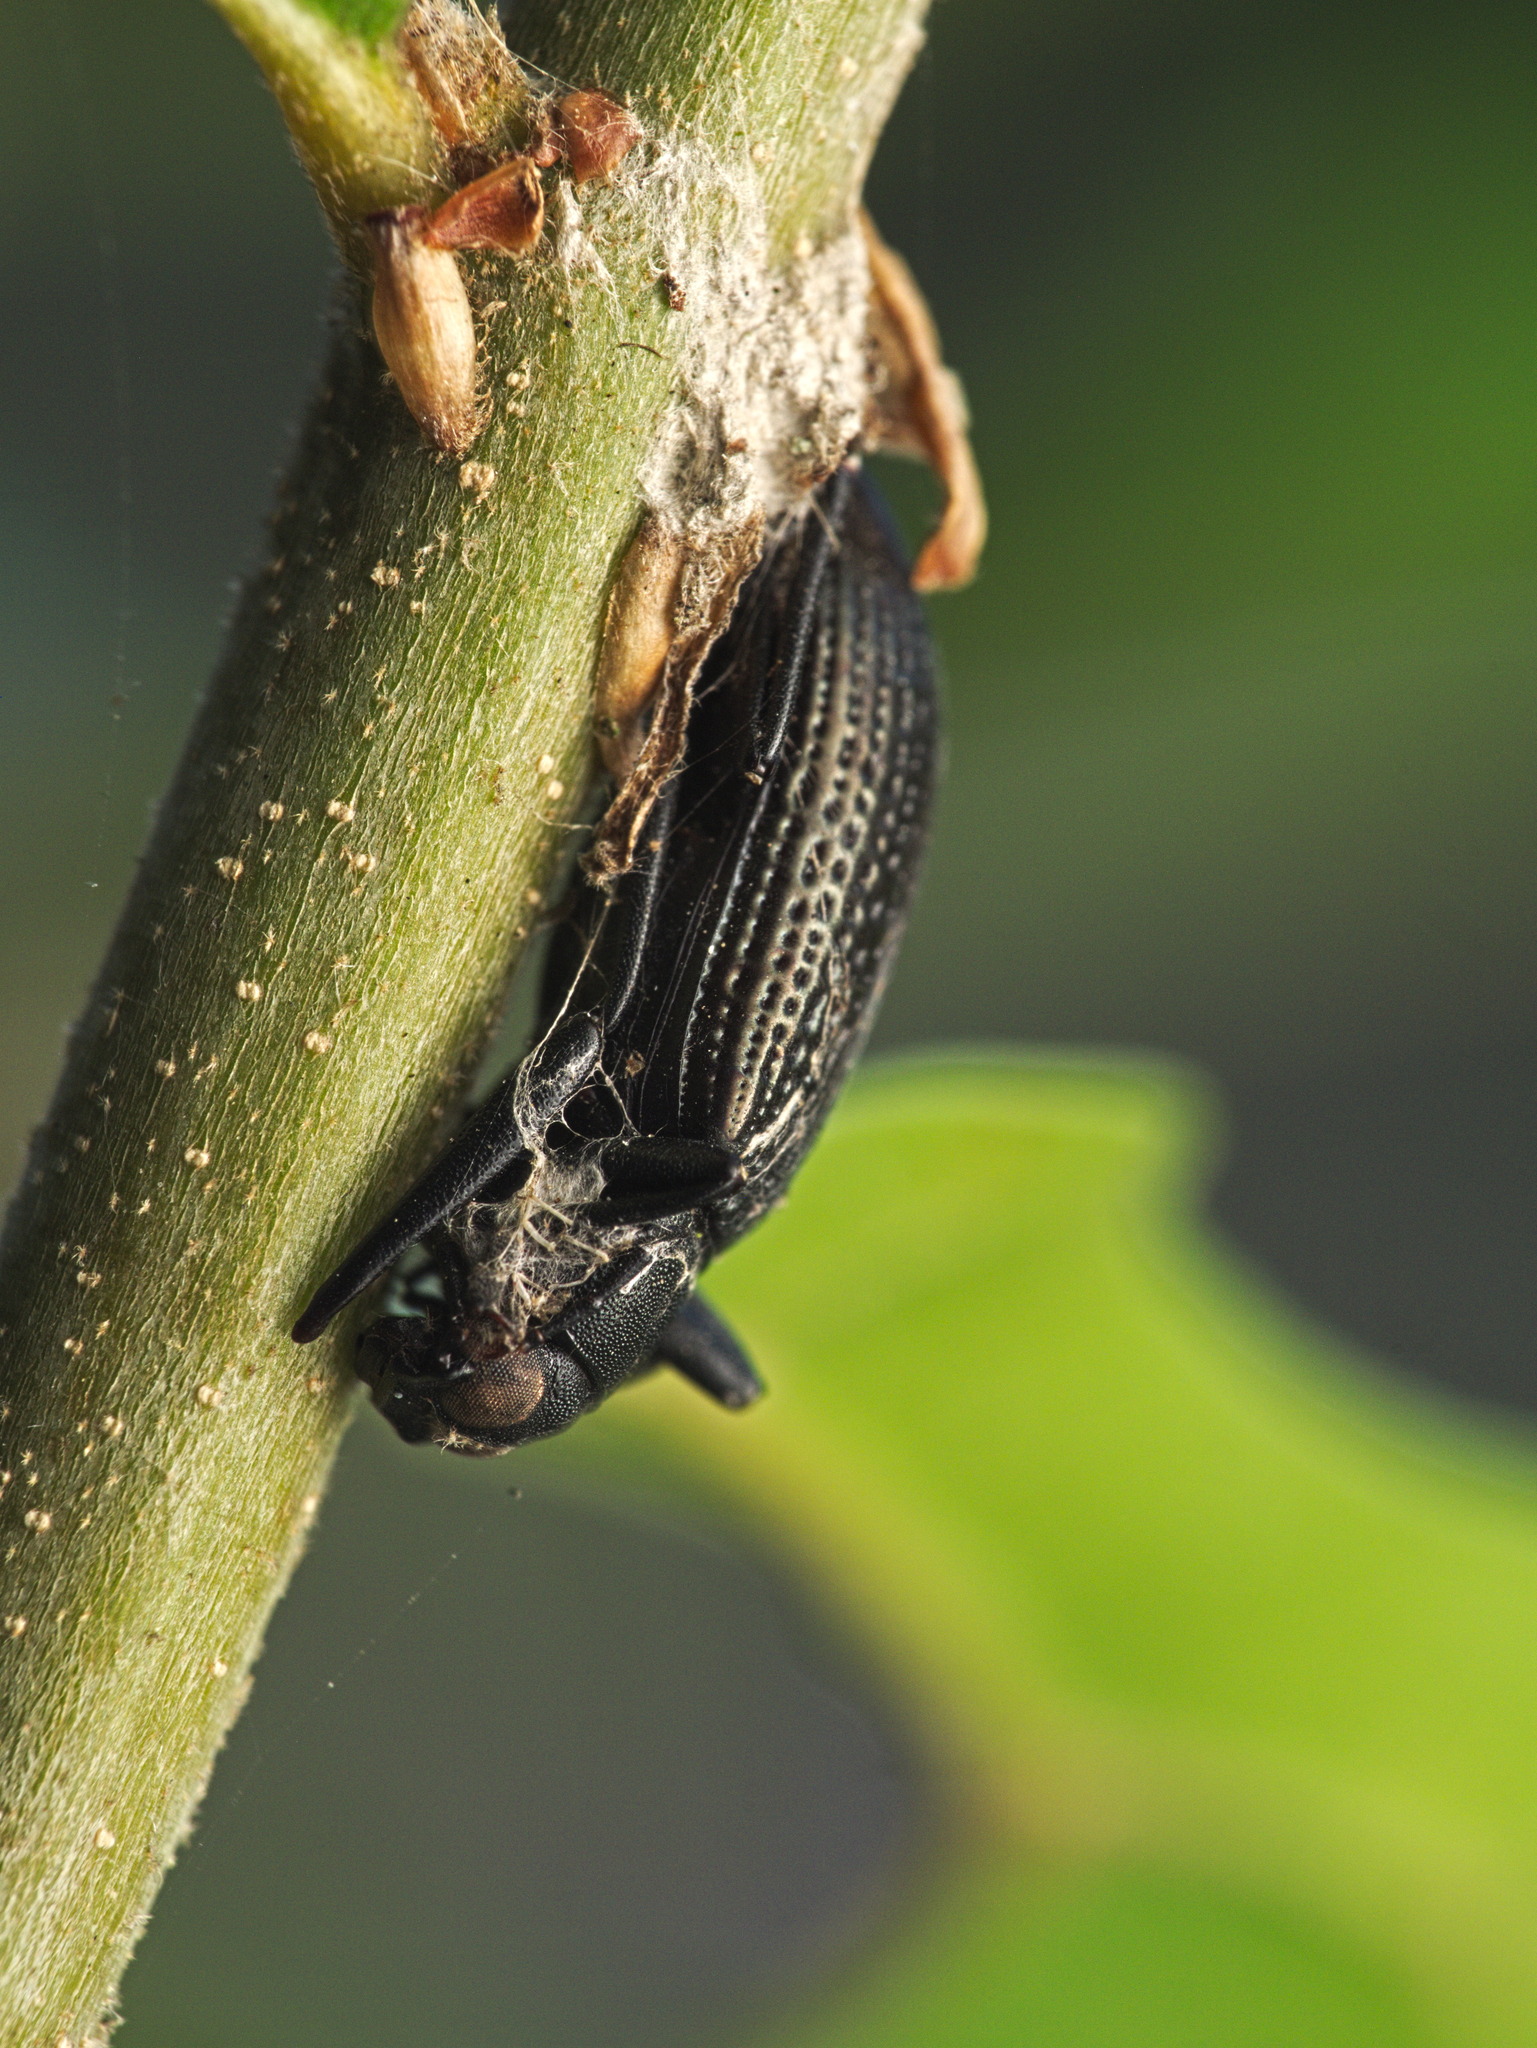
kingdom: Animalia
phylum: Arthropoda
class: Insecta
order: Coleoptera
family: Tenebrionidae
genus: Strongylium
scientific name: Strongylium hemistriatum
